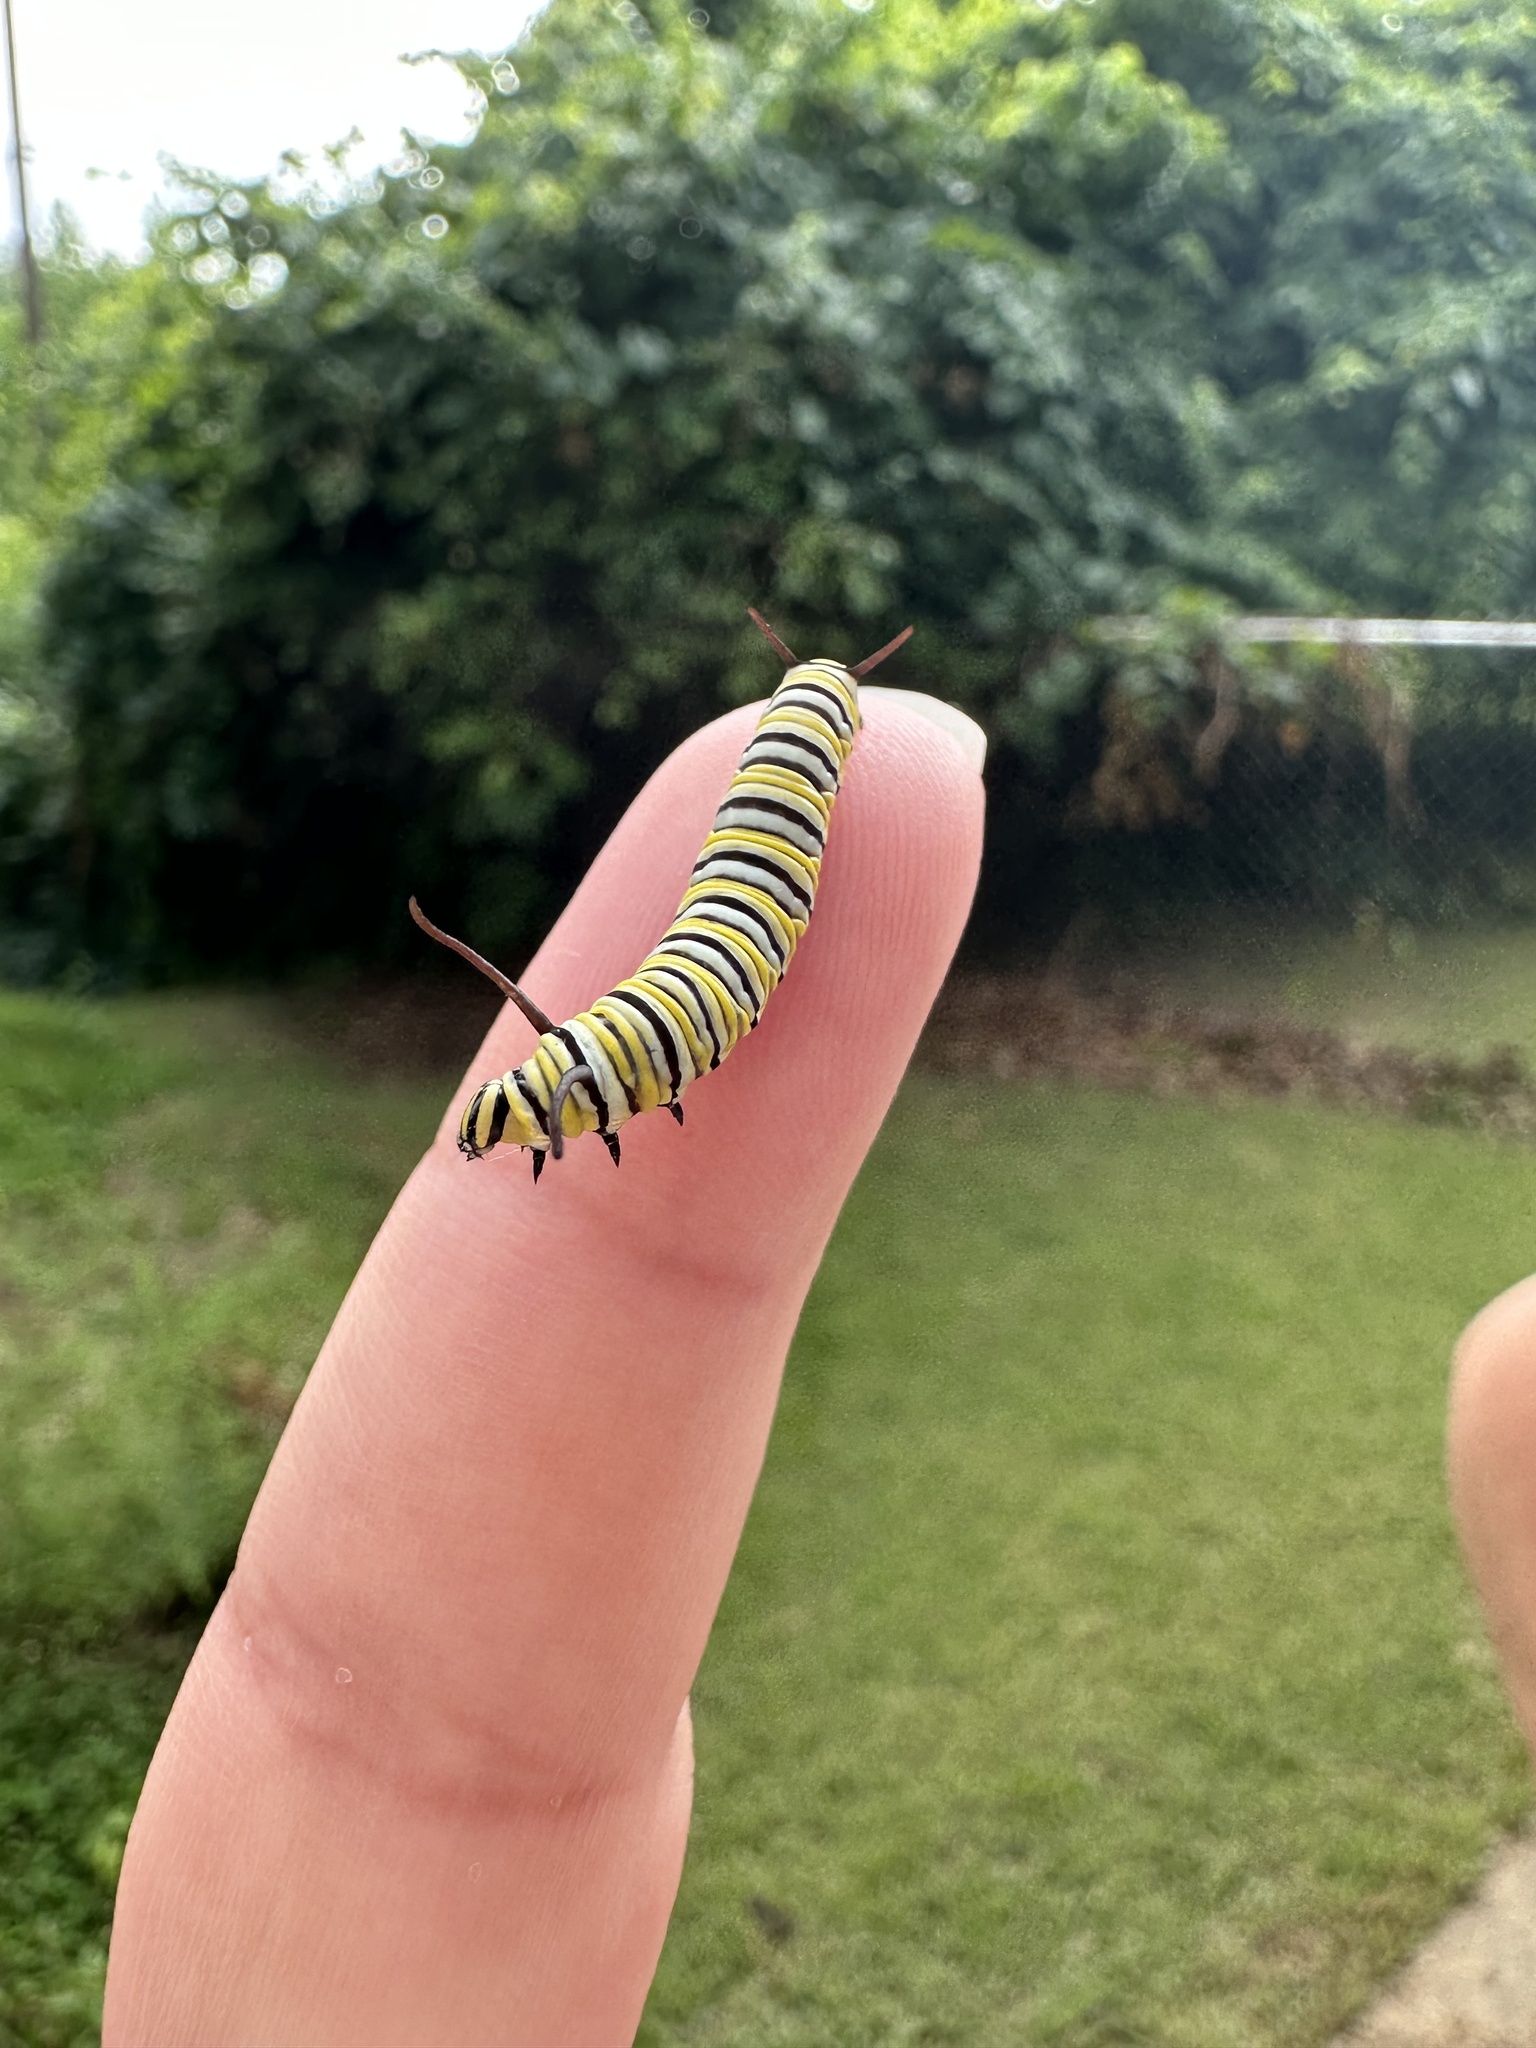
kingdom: Animalia
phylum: Arthropoda
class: Insecta
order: Lepidoptera
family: Nymphalidae
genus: Danaus
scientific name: Danaus plexippus
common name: Monarch
